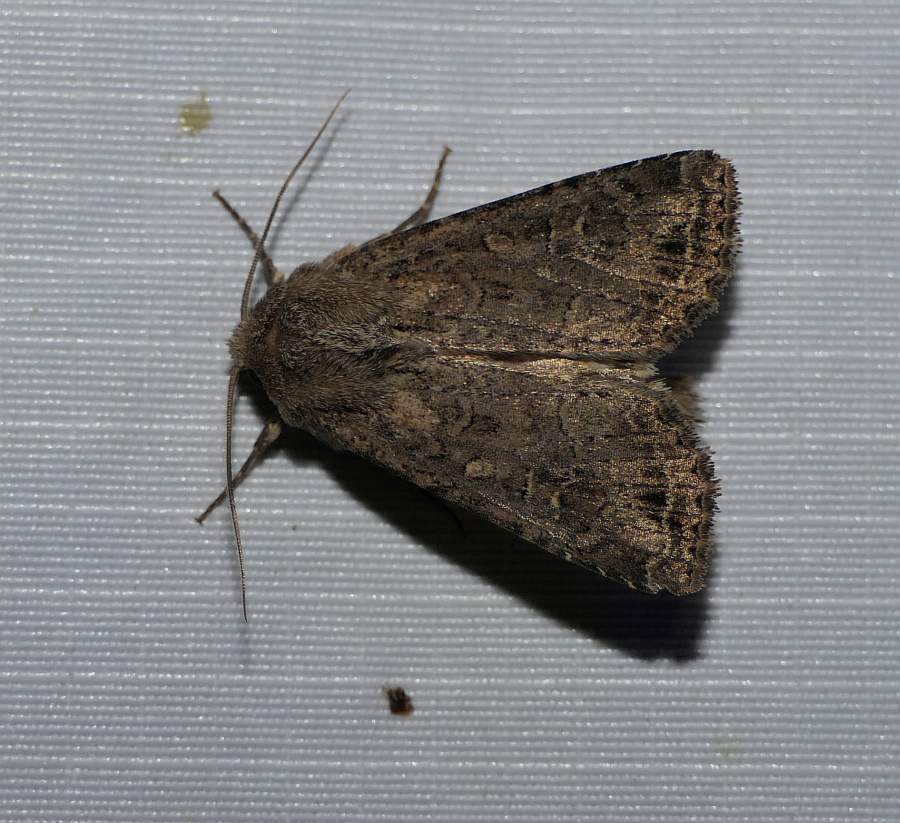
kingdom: Animalia
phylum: Arthropoda
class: Insecta
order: Lepidoptera
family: Noctuidae
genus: Apamea
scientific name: Apamea devastator
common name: Glassy cutworm
